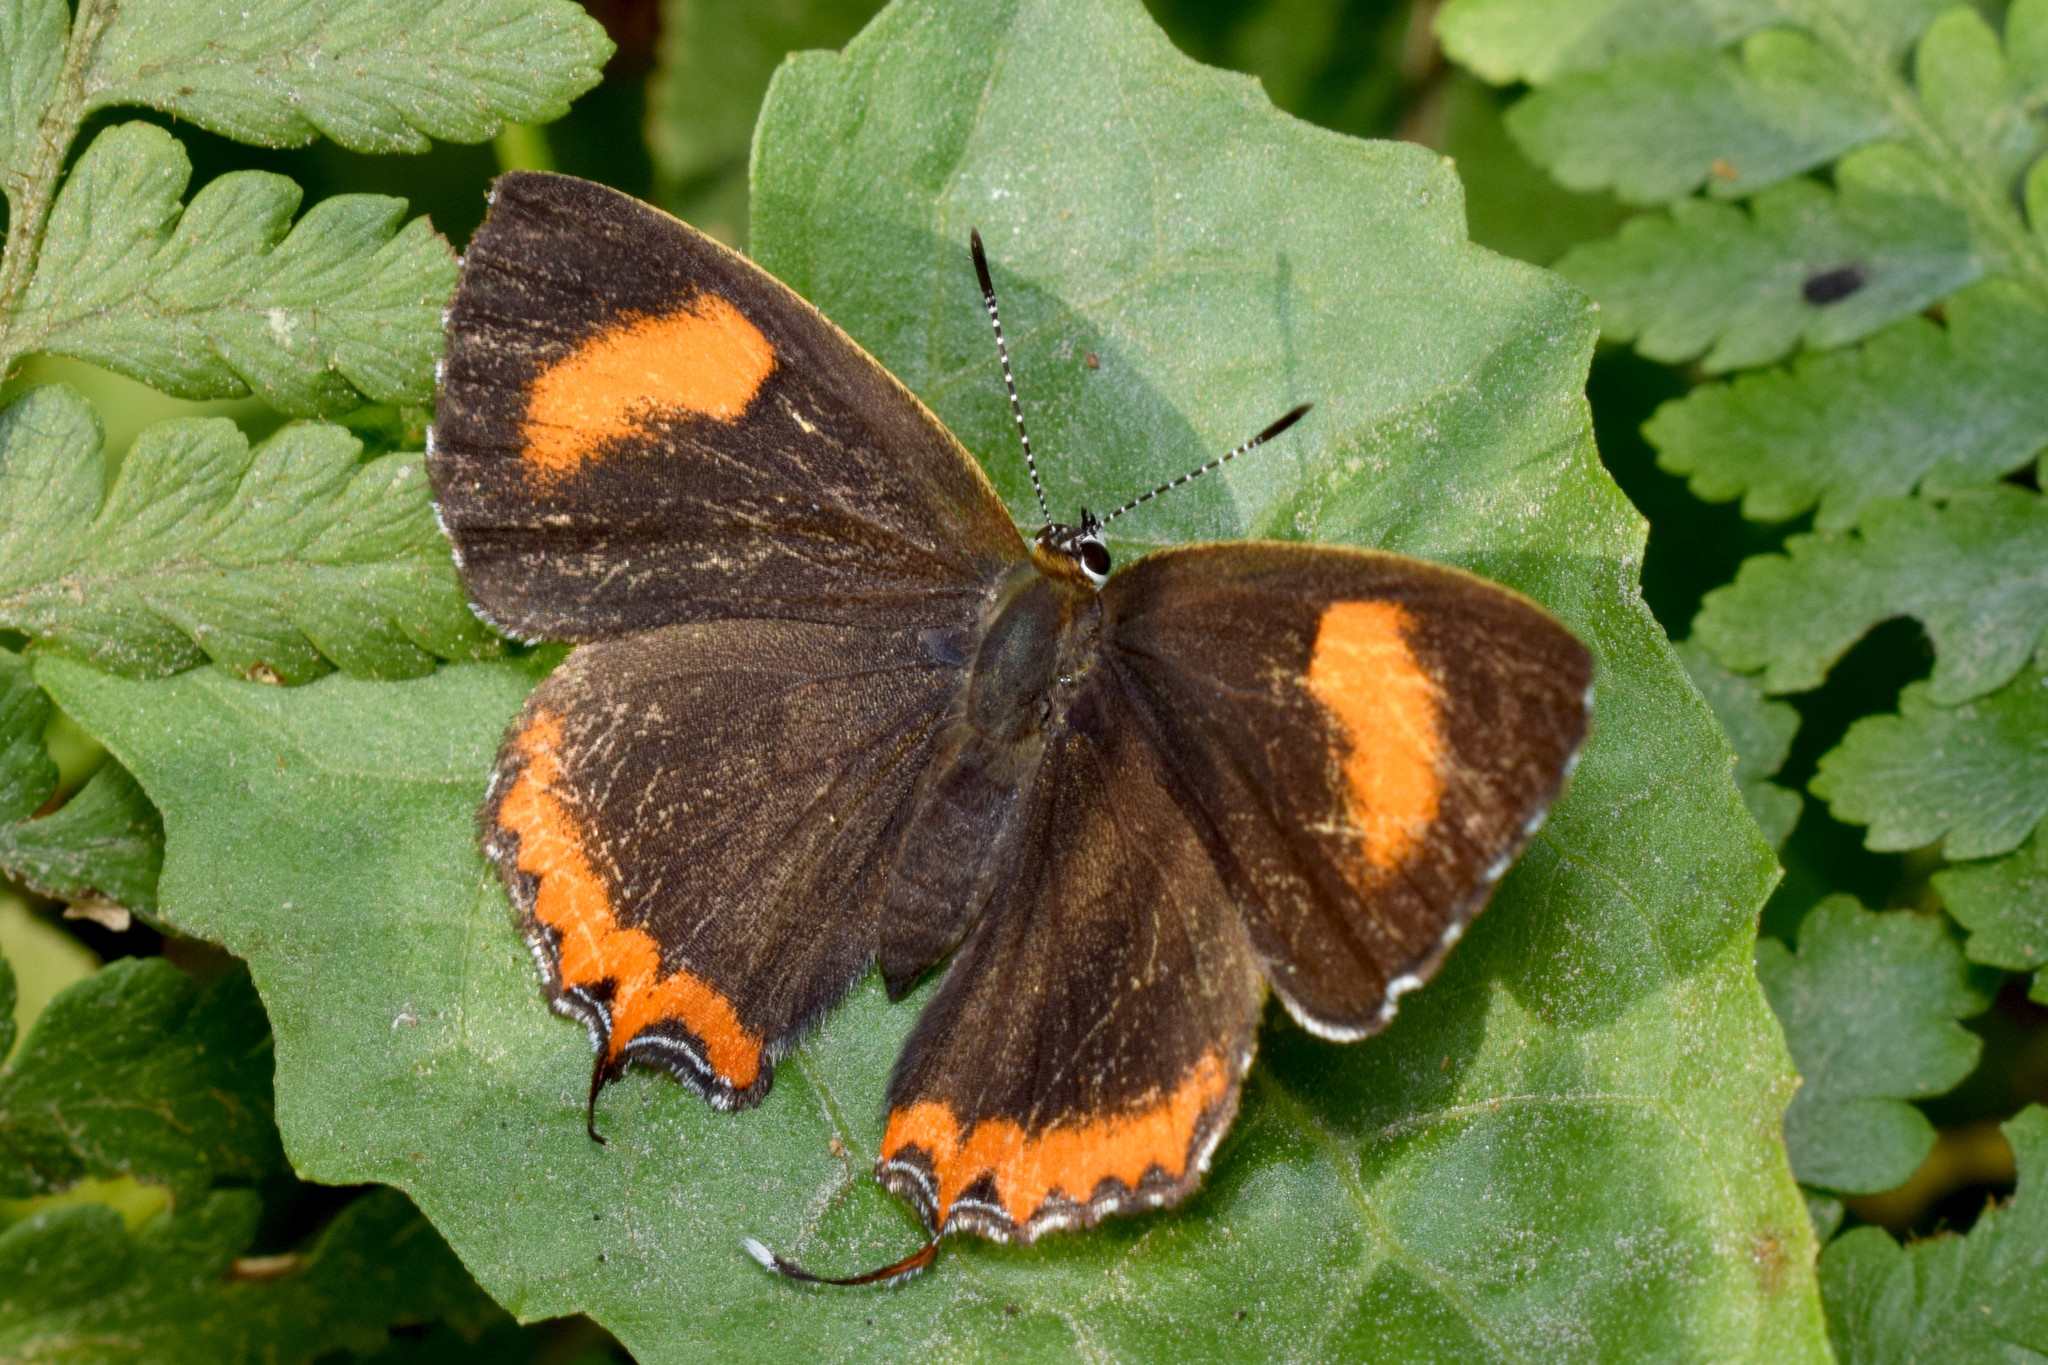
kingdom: Animalia
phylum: Arthropoda
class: Insecta
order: Lepidoptera
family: Lycaenidae
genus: Heliophorus
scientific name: Heliophorus brahma
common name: Golden sapphire
